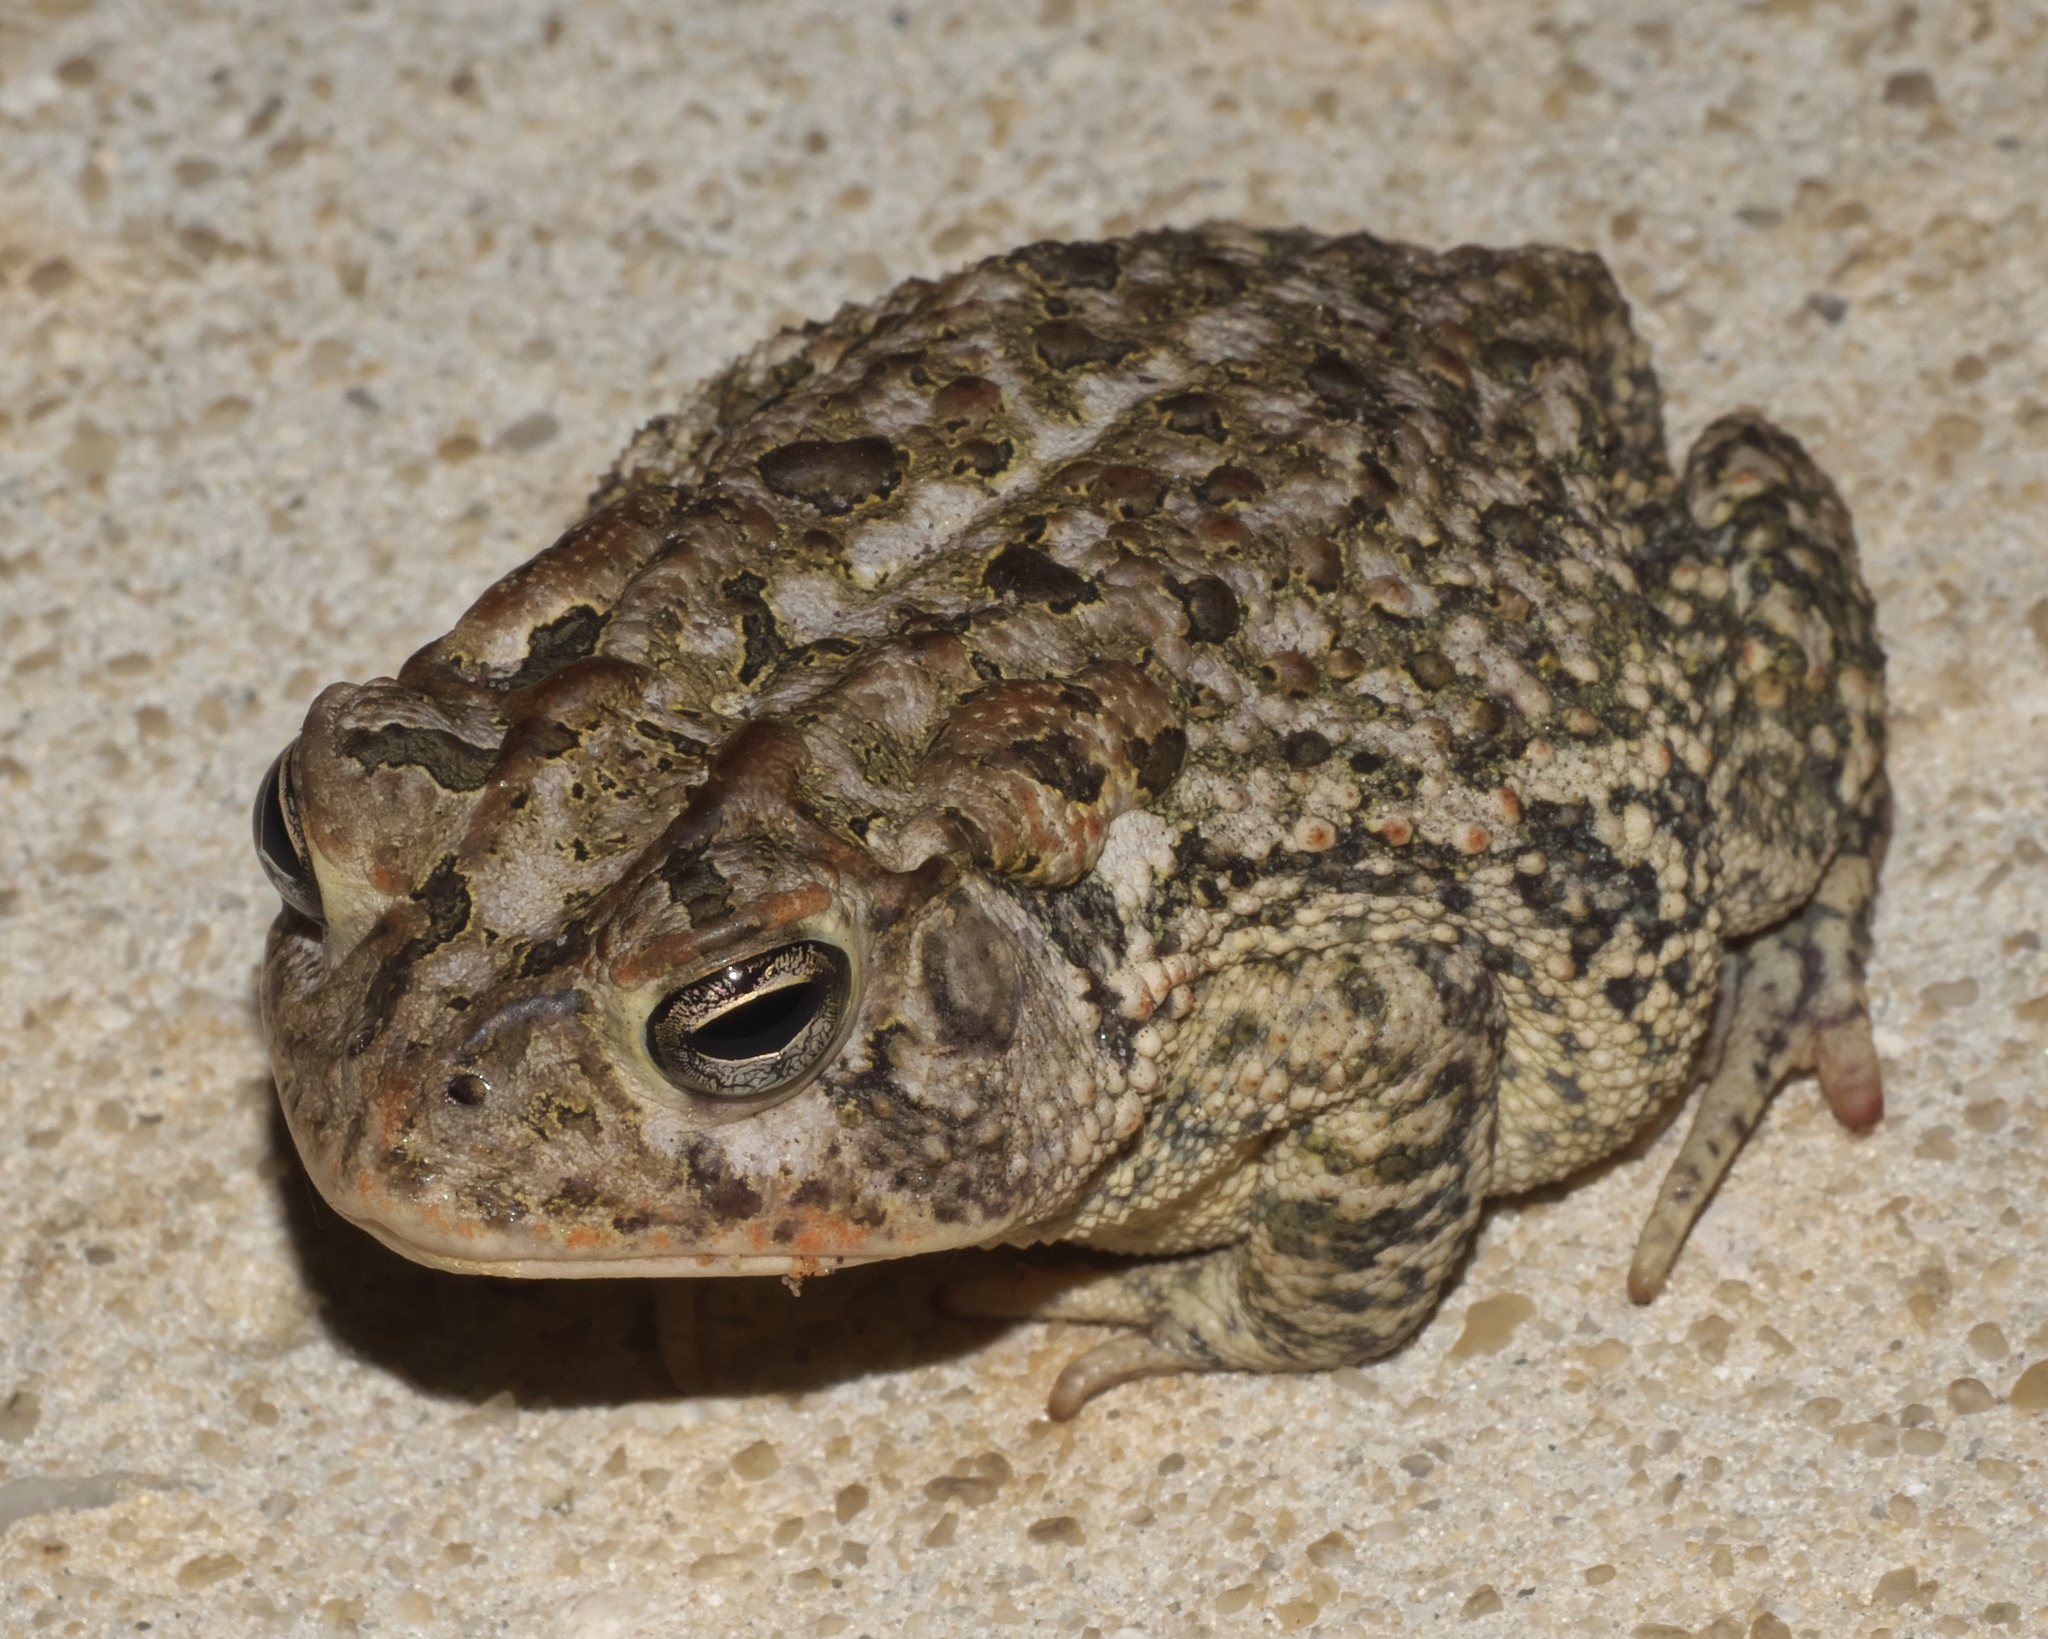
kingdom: Animalia
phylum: Chordata
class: Amphibia
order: Anura
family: Bufonidae
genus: Anaxyrus
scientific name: Anaxyrus terrestris
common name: Southern toad
